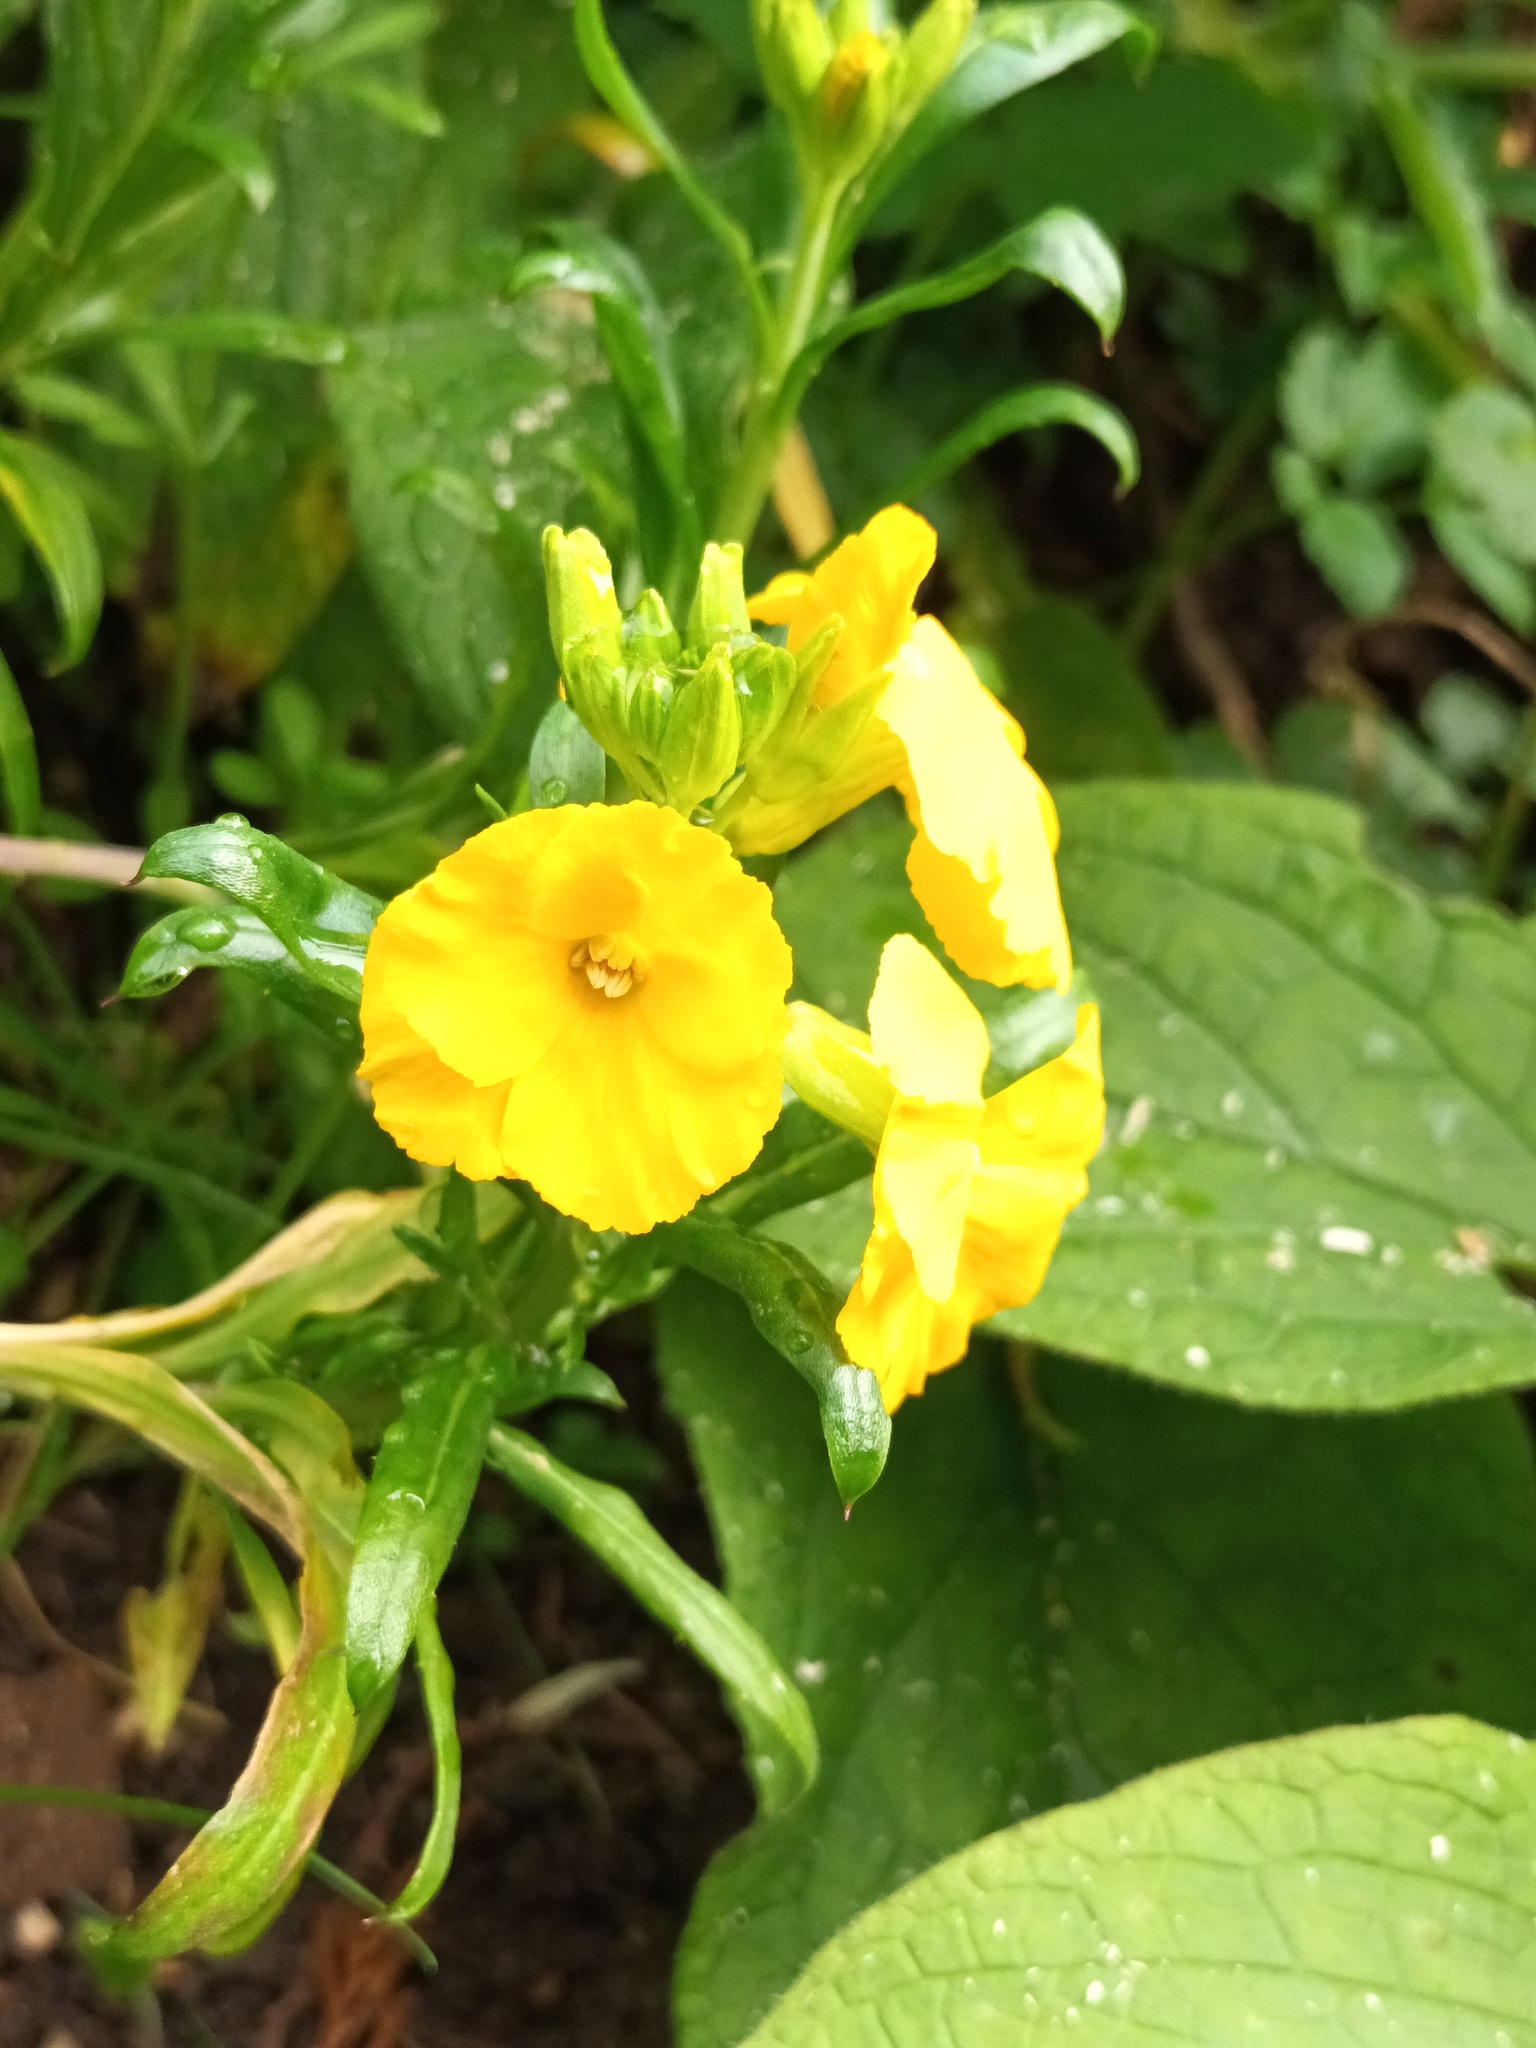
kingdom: Plantae
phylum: Tracheophyta
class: Magnoliopsida
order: Brassicales
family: Brassicaceae
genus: Erysimum
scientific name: Erysimum cheiri
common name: Wallflower
